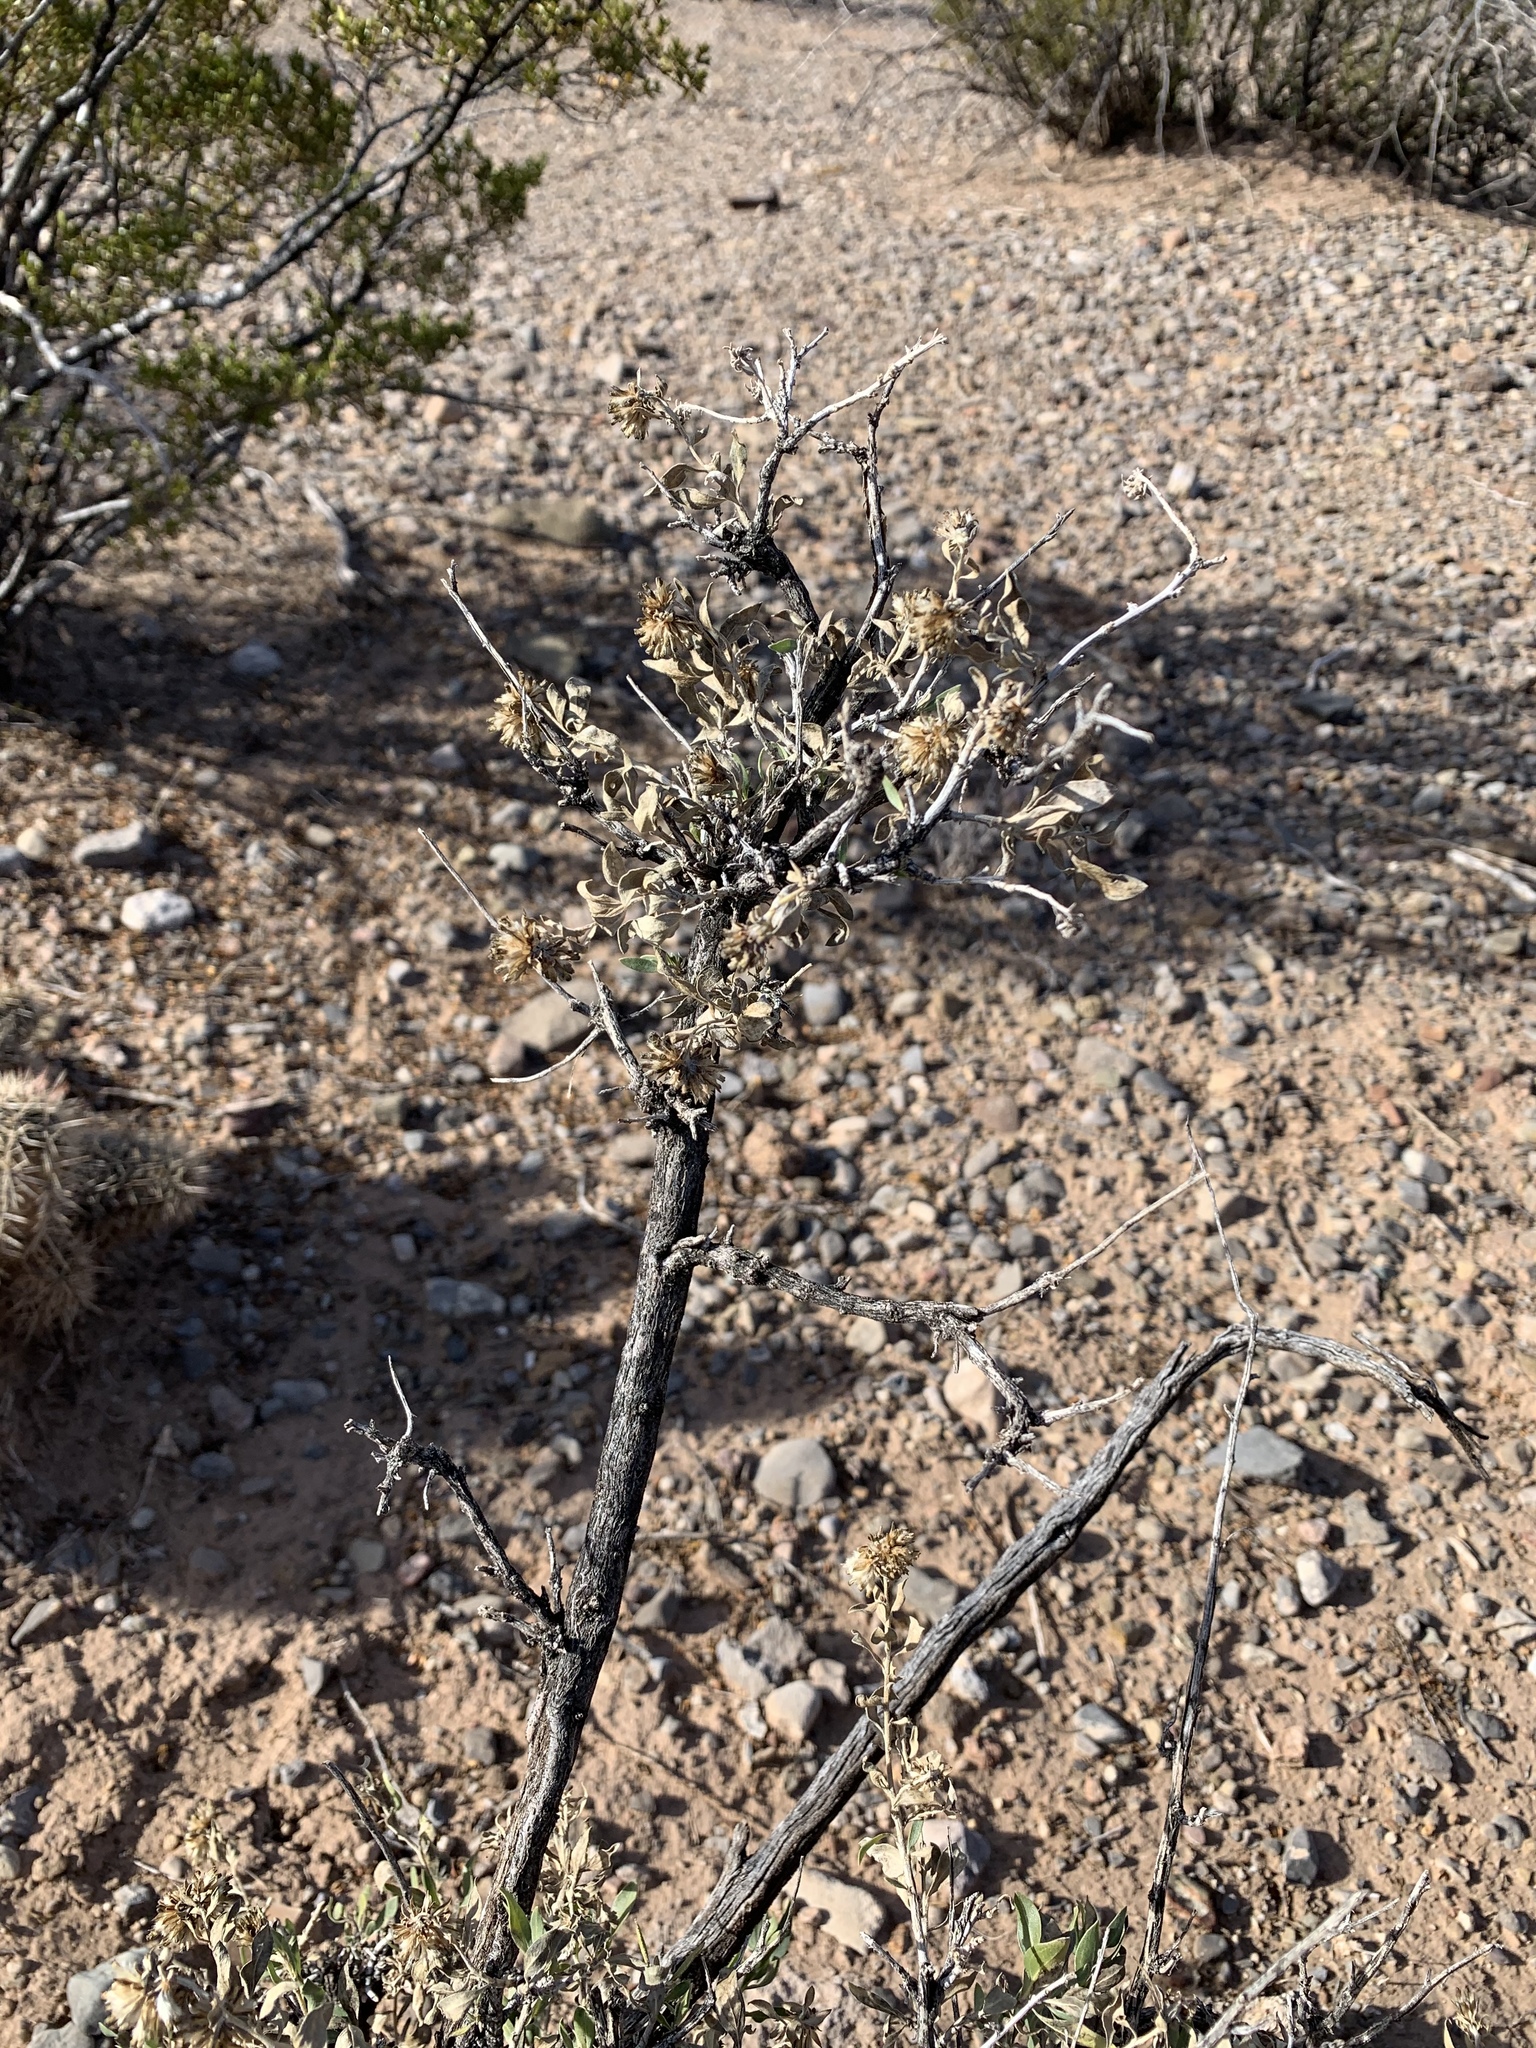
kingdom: Plantae
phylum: Tracheophyta
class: Magnoliopsida
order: Asterales
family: Asteraceae
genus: Flourensia
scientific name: Flourensia cernua
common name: Varnishbush
